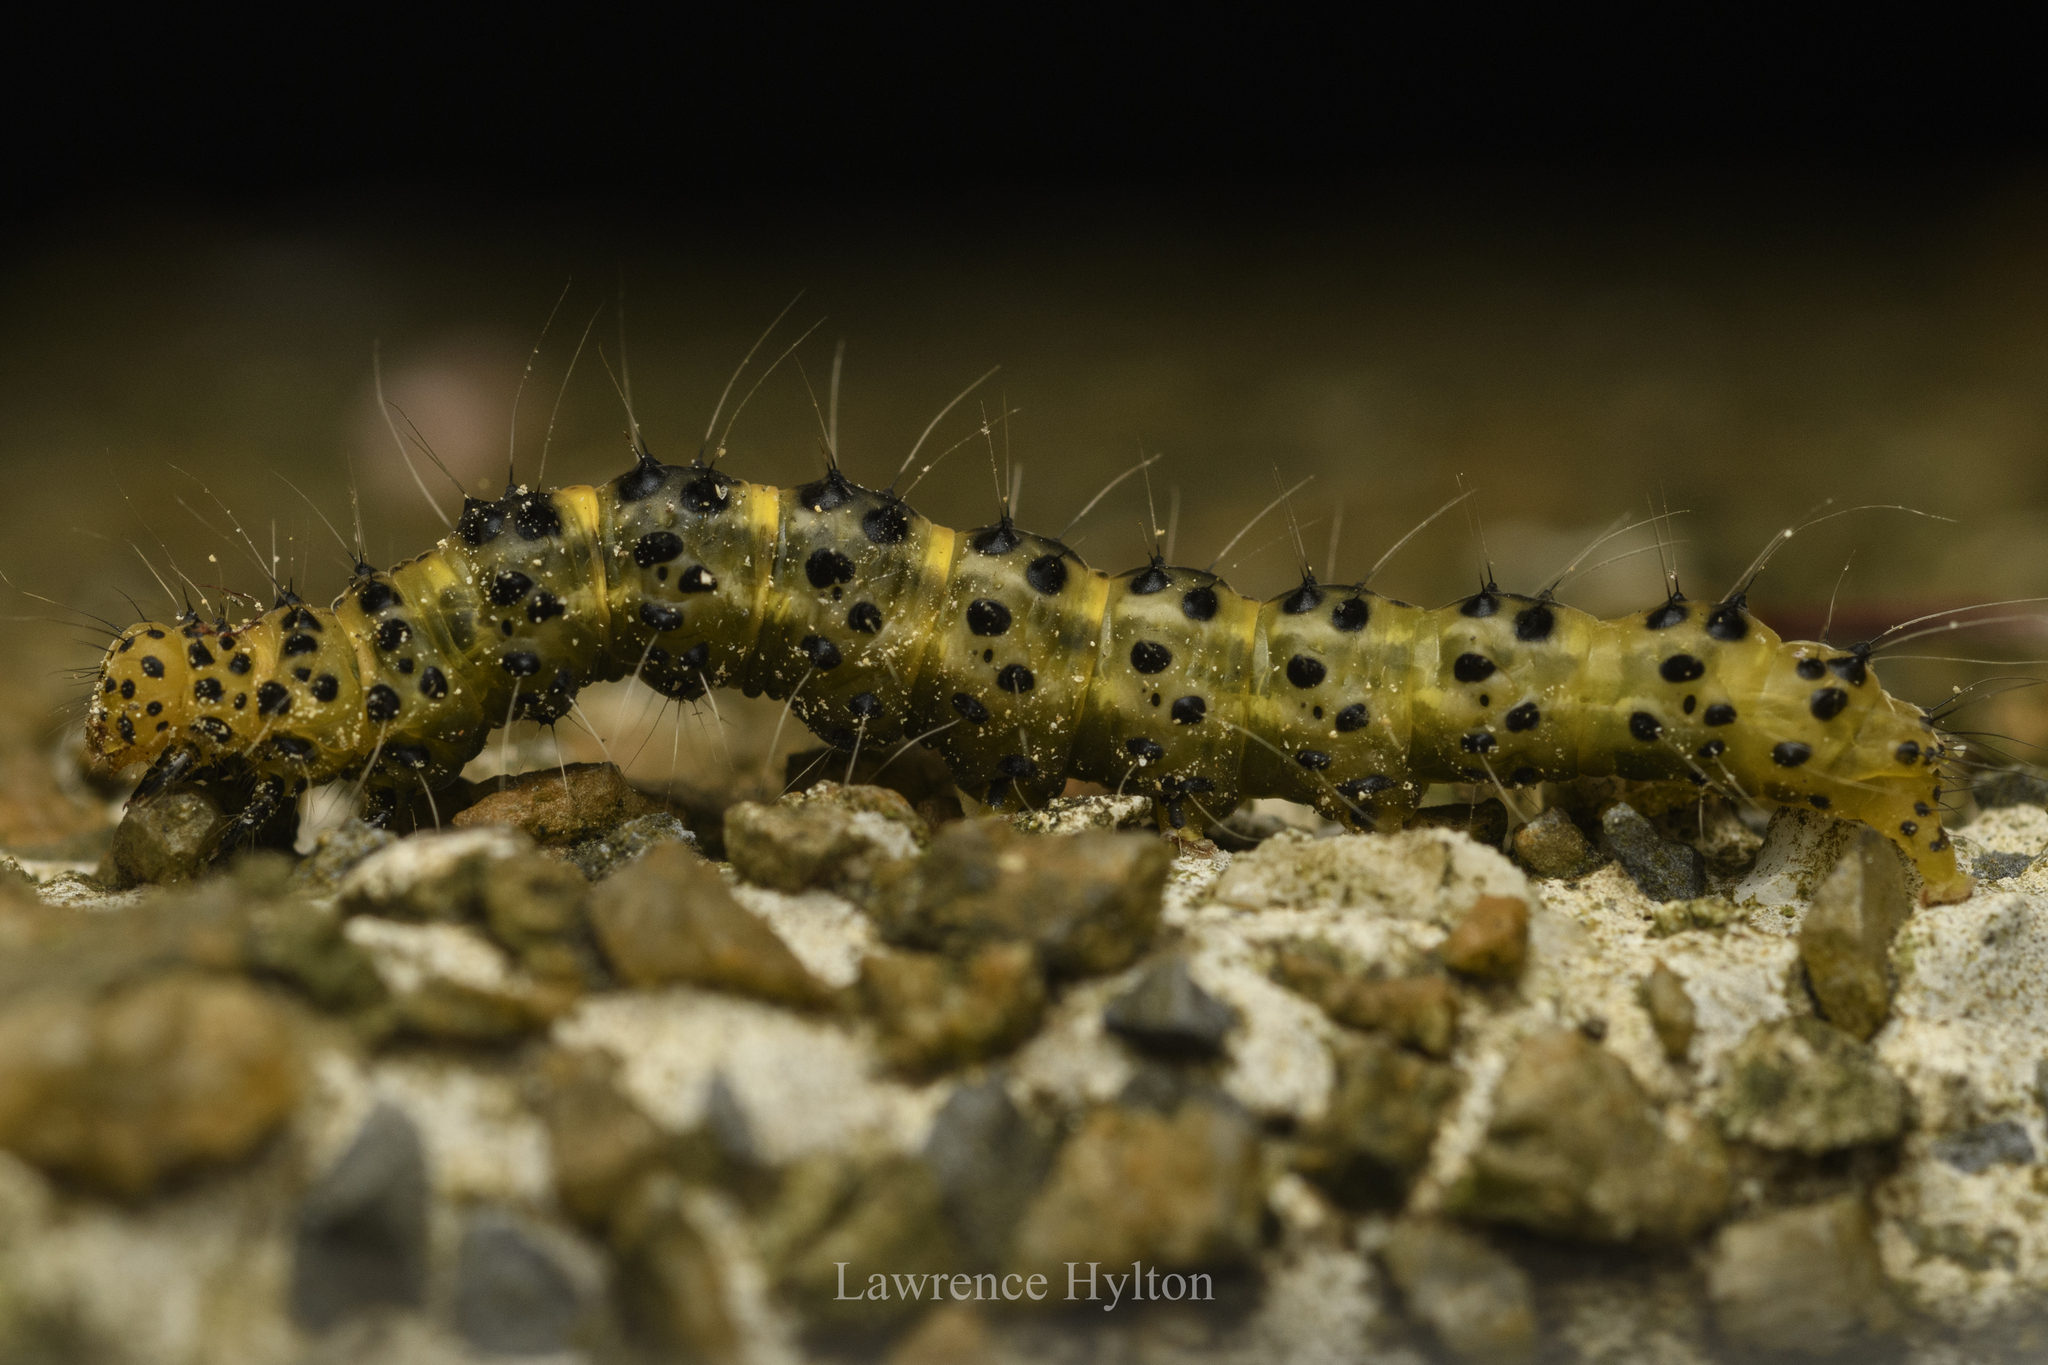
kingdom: Animalia
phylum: Arthropoda
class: Insecta
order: Lepidoptera
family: Erebidae
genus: Hypena
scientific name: Hypena Dichromia sagitta
